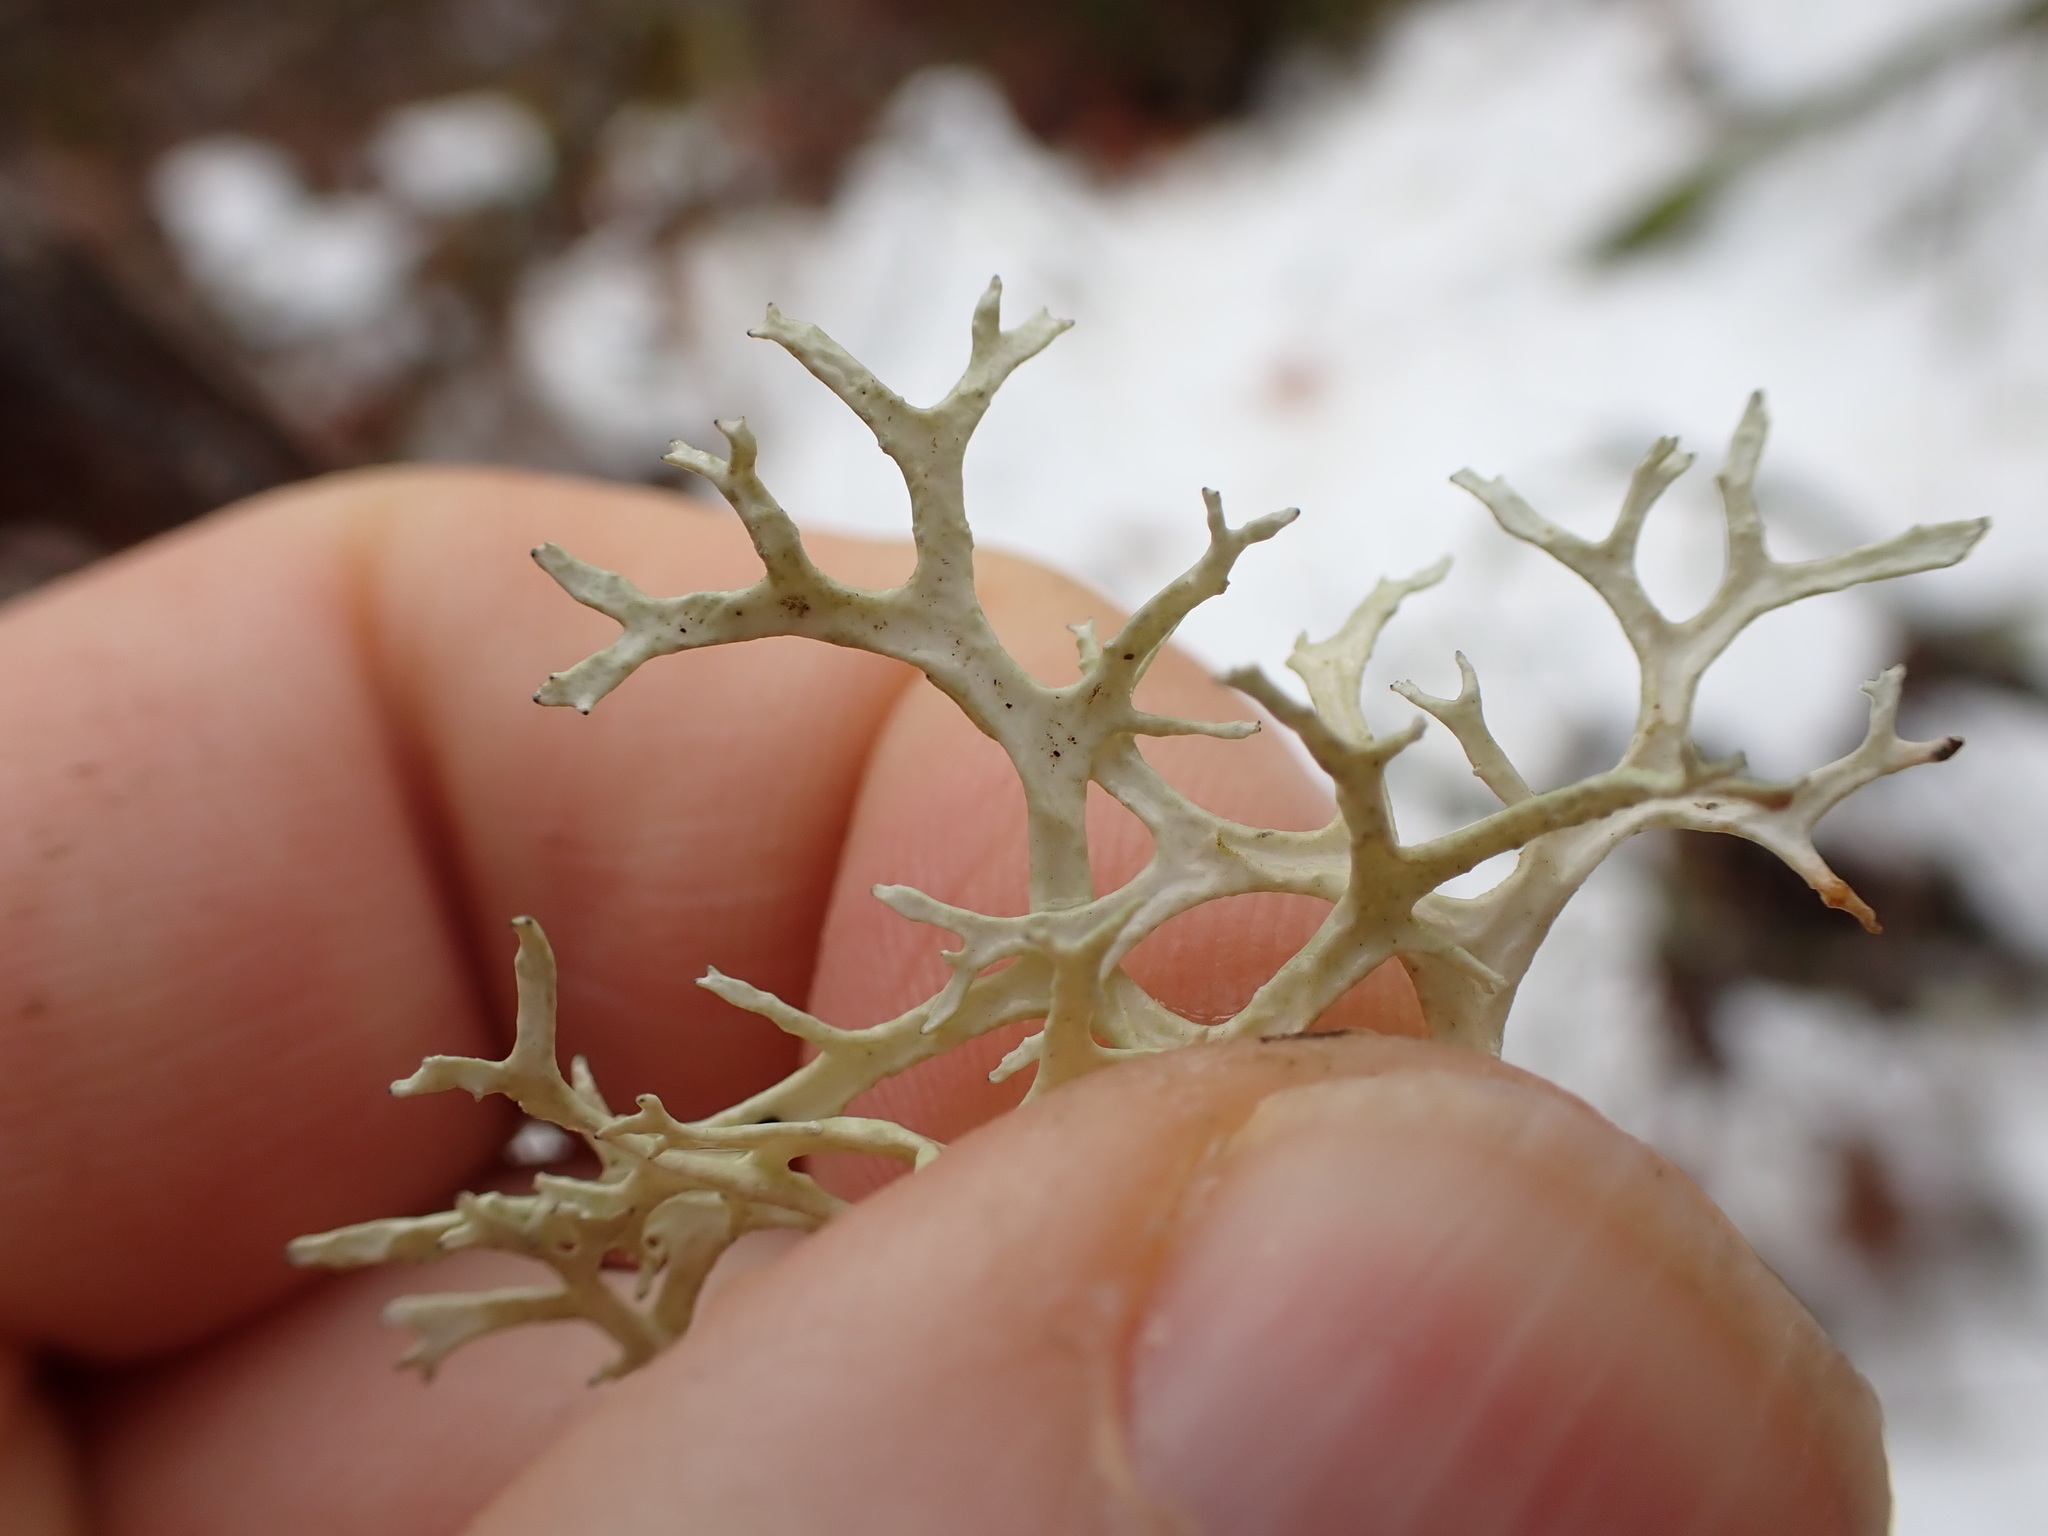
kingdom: Fungi
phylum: Ascomycota
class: Lecanoromycetes
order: Lecanorales
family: Parmeliaceae
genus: Evernia
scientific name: Evernia prunastri
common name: Oak moss
